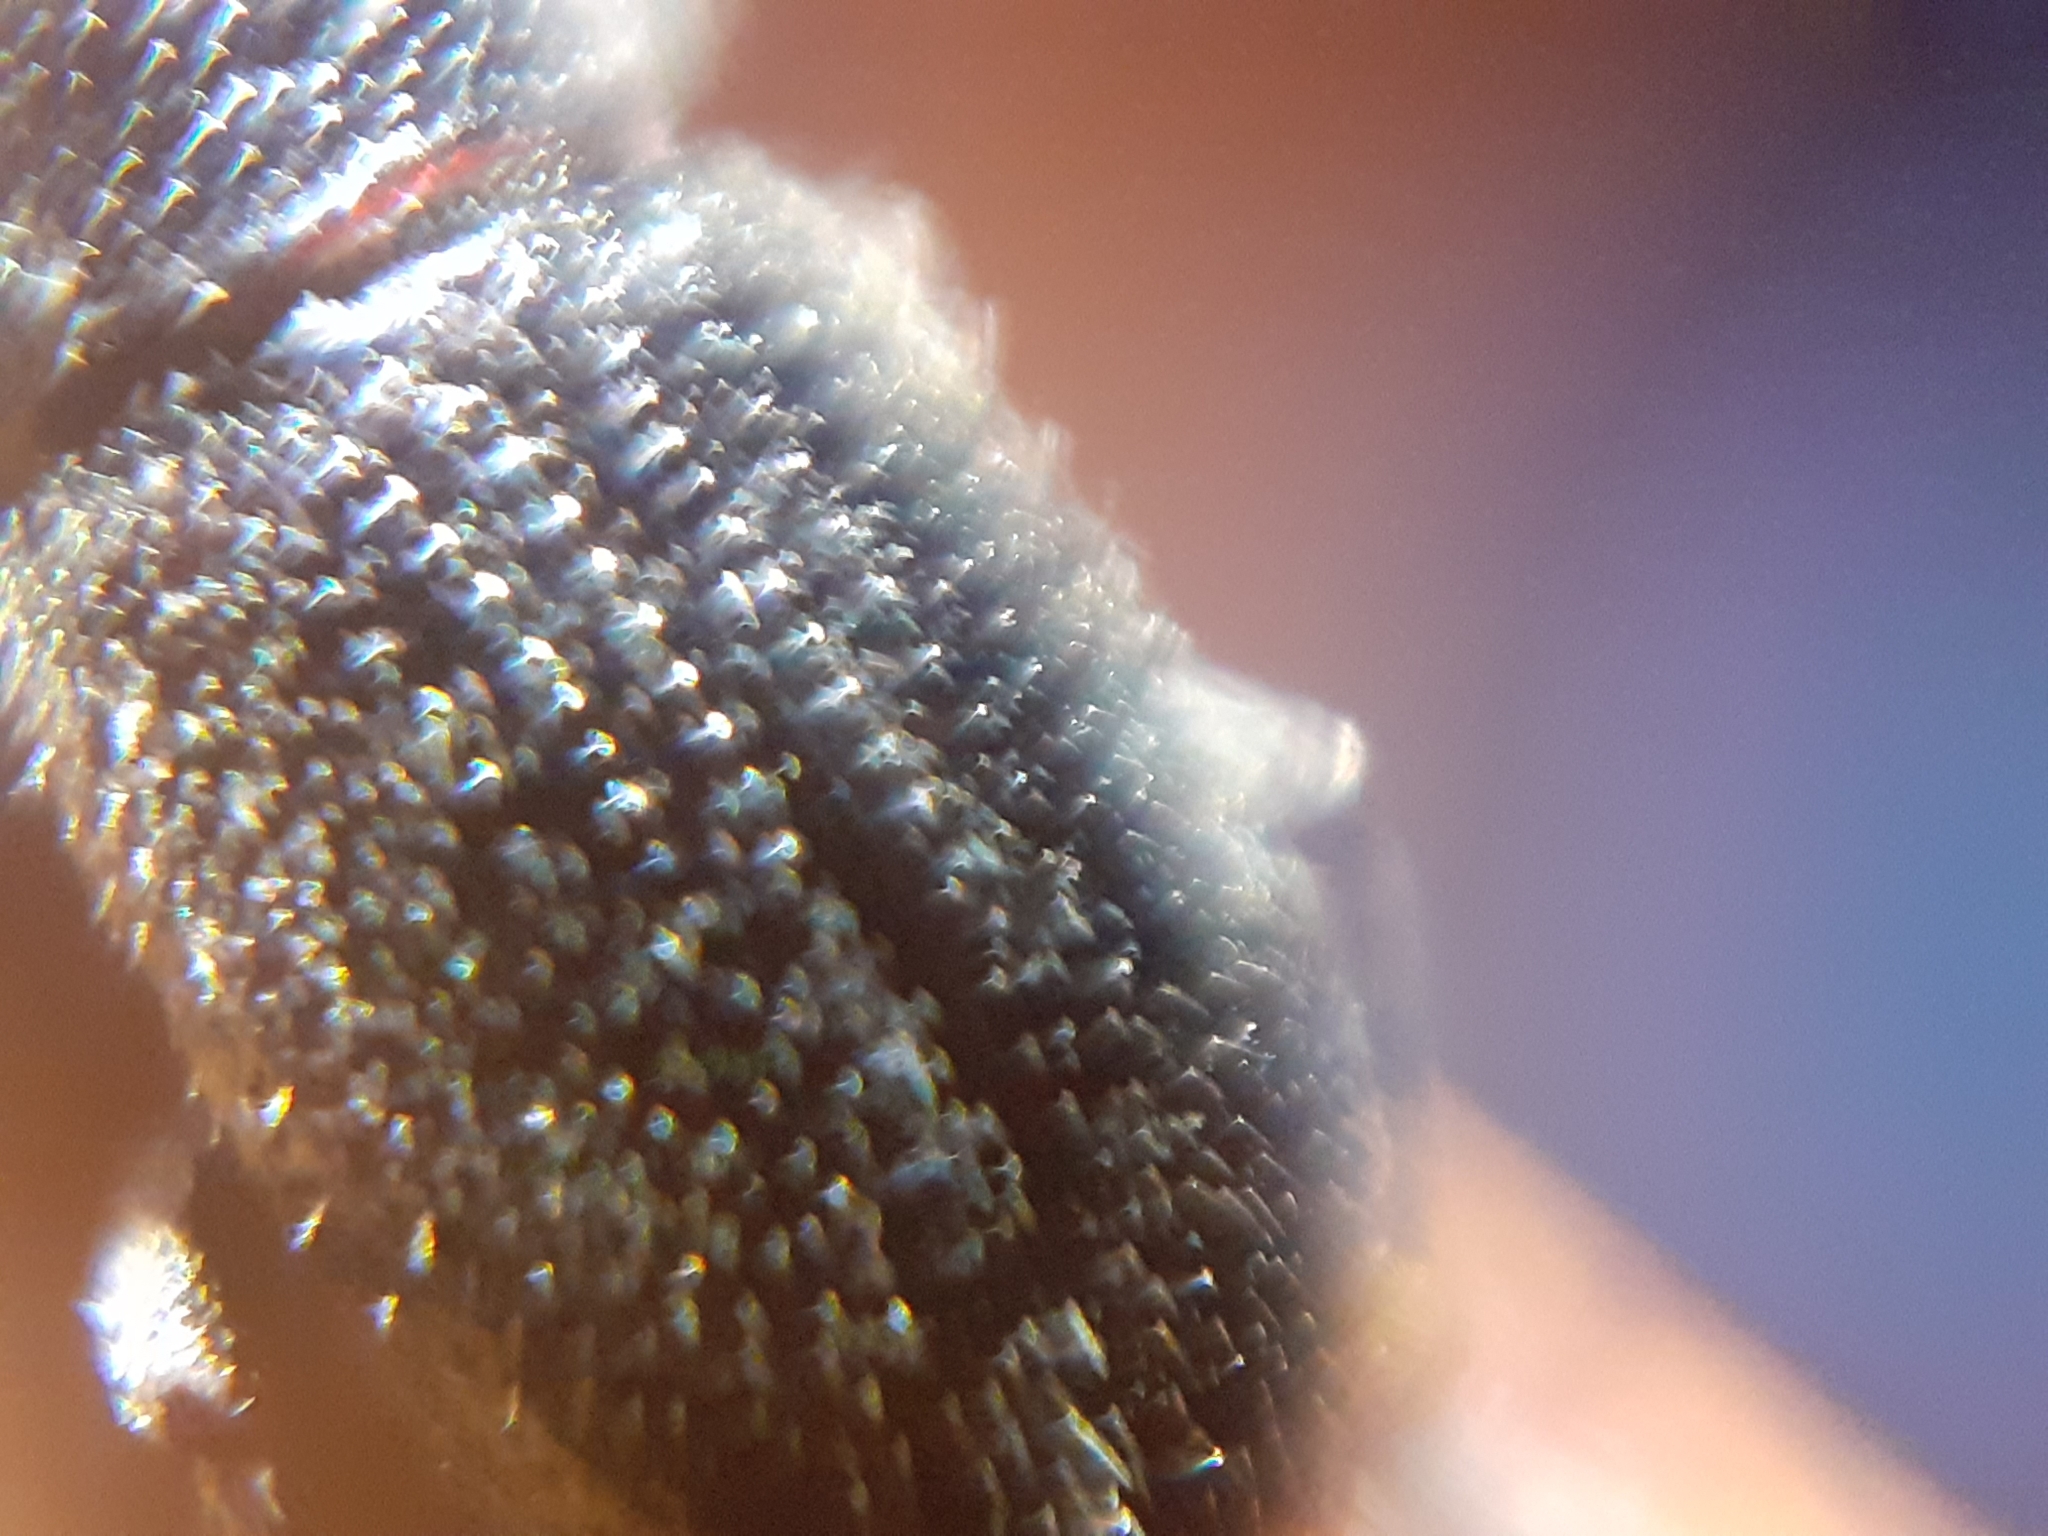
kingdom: Animalia
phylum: Arthropoda
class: Insecta
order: Coleoptera
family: Curculionidae
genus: Leschenius
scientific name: Leschenius vulcanorum
